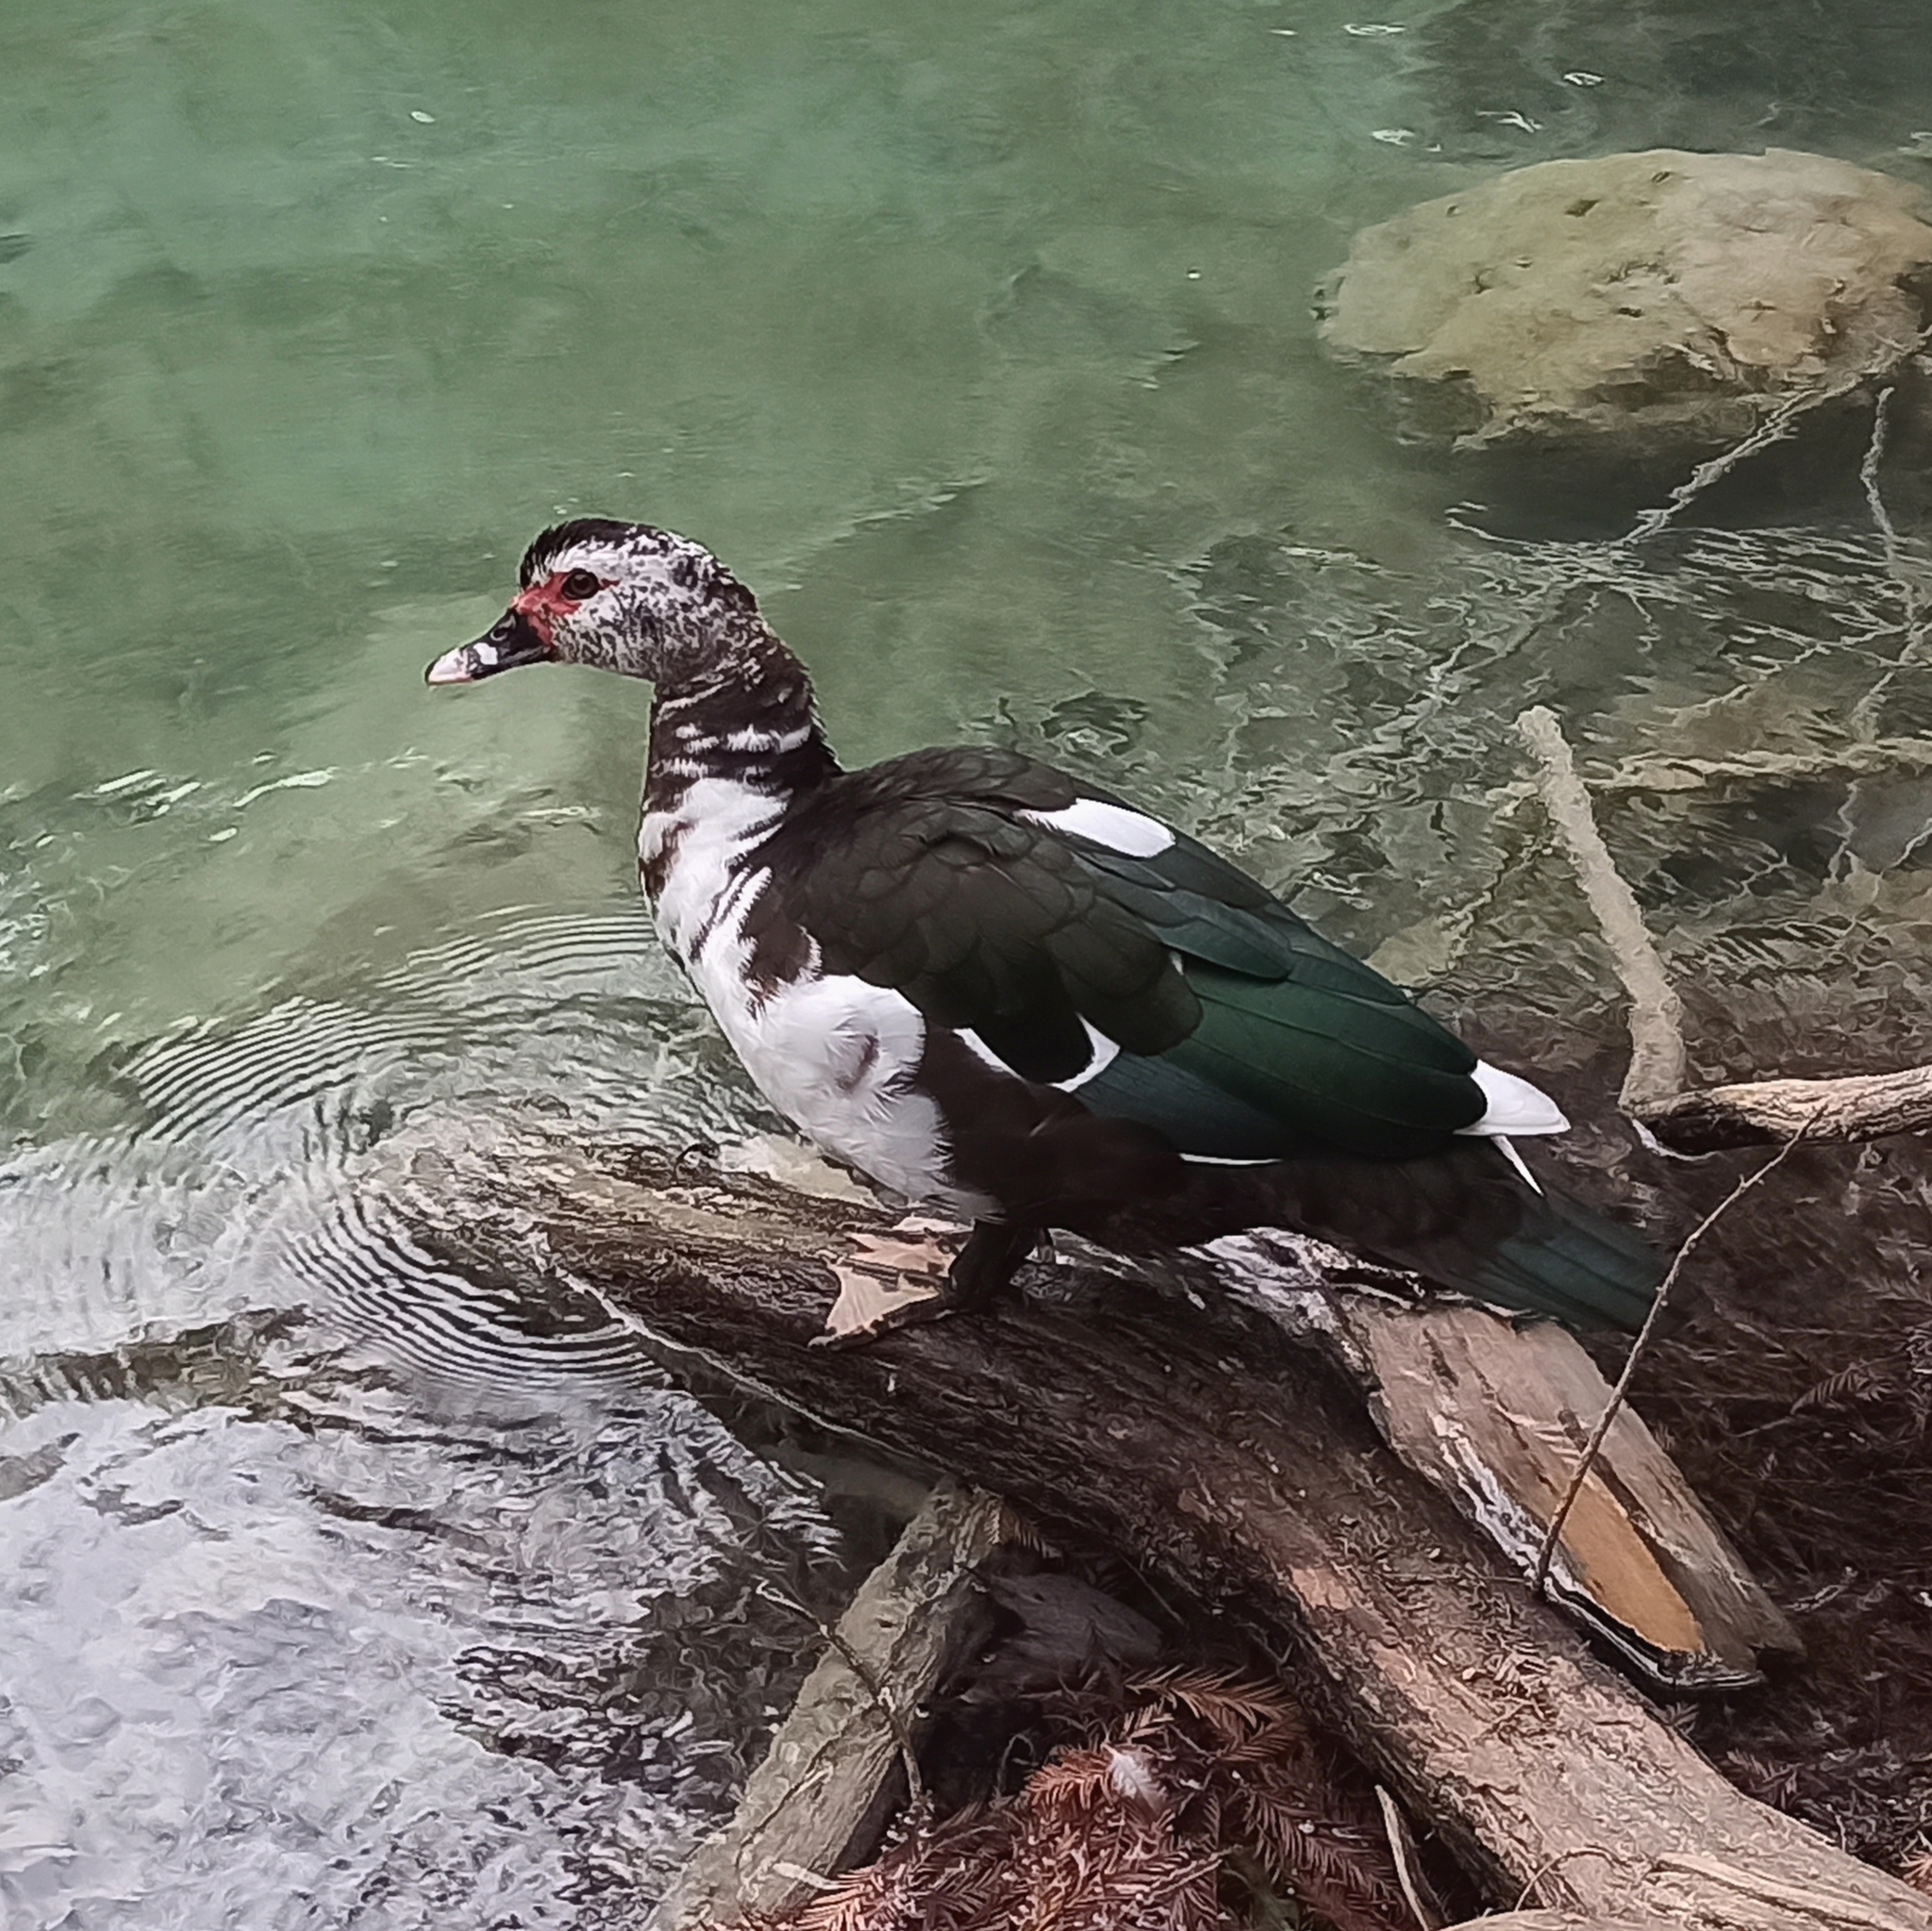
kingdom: Animalia
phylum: Chordata
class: Aves
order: Anseriformes
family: Anatidae
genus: Cairina
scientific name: Cairina moschata
